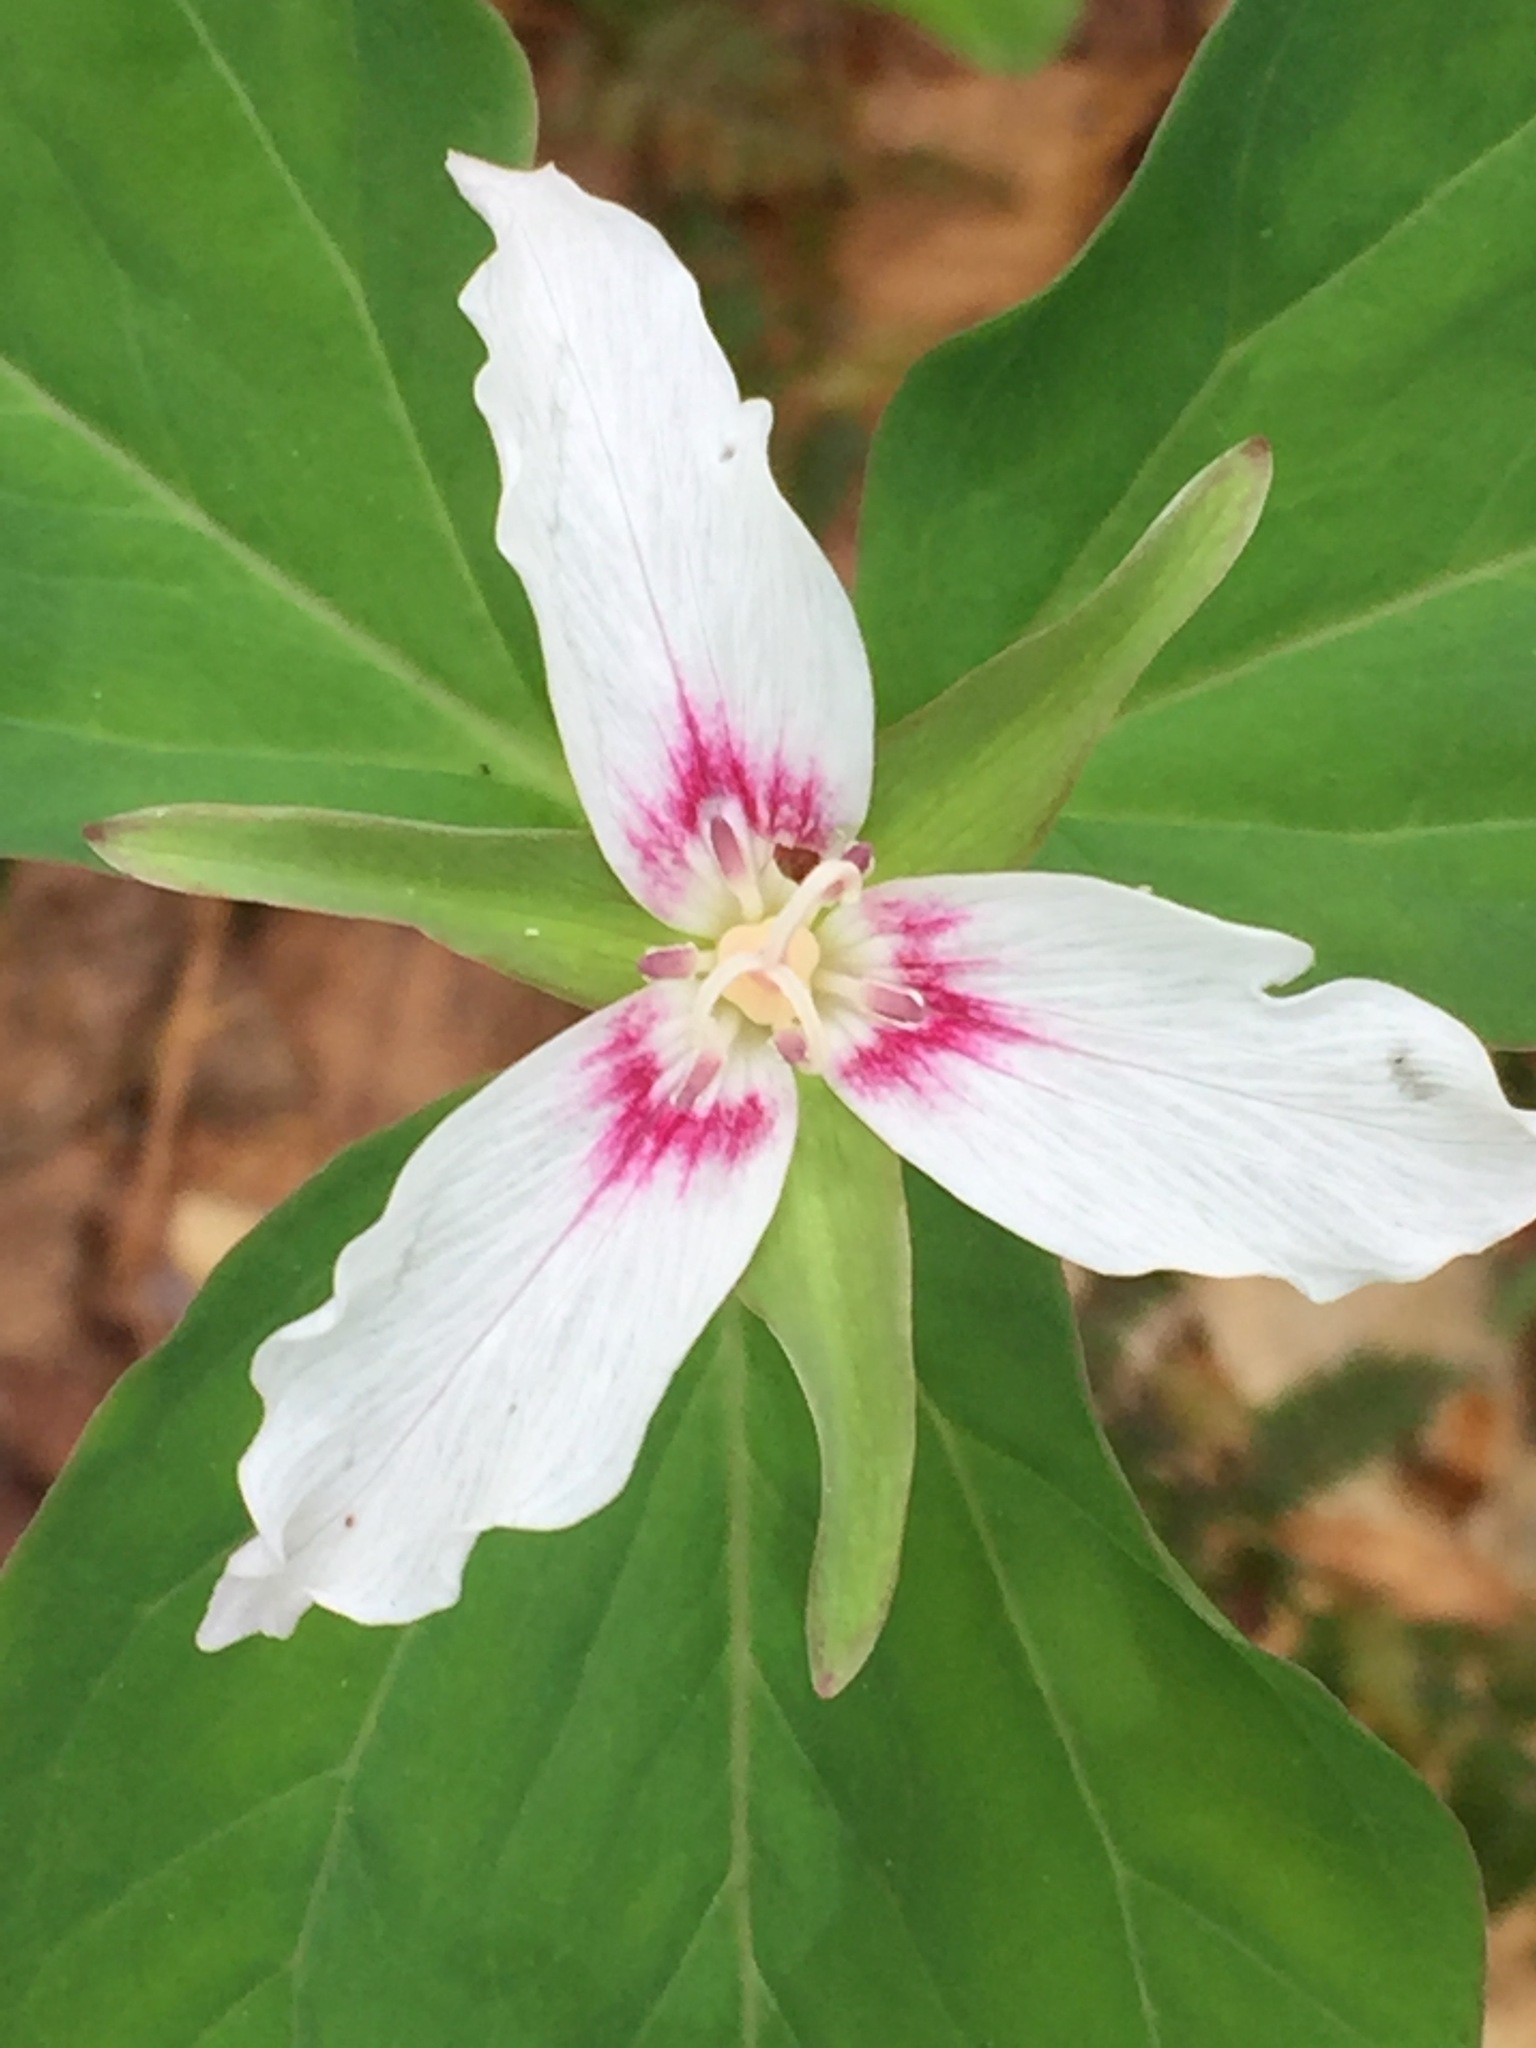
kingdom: Plantae
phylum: Tracheophyta
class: Liliopsida
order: Liliales
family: Melanthiaceae
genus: Trillium
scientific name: Trillium undulatum
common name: Paint trillium
